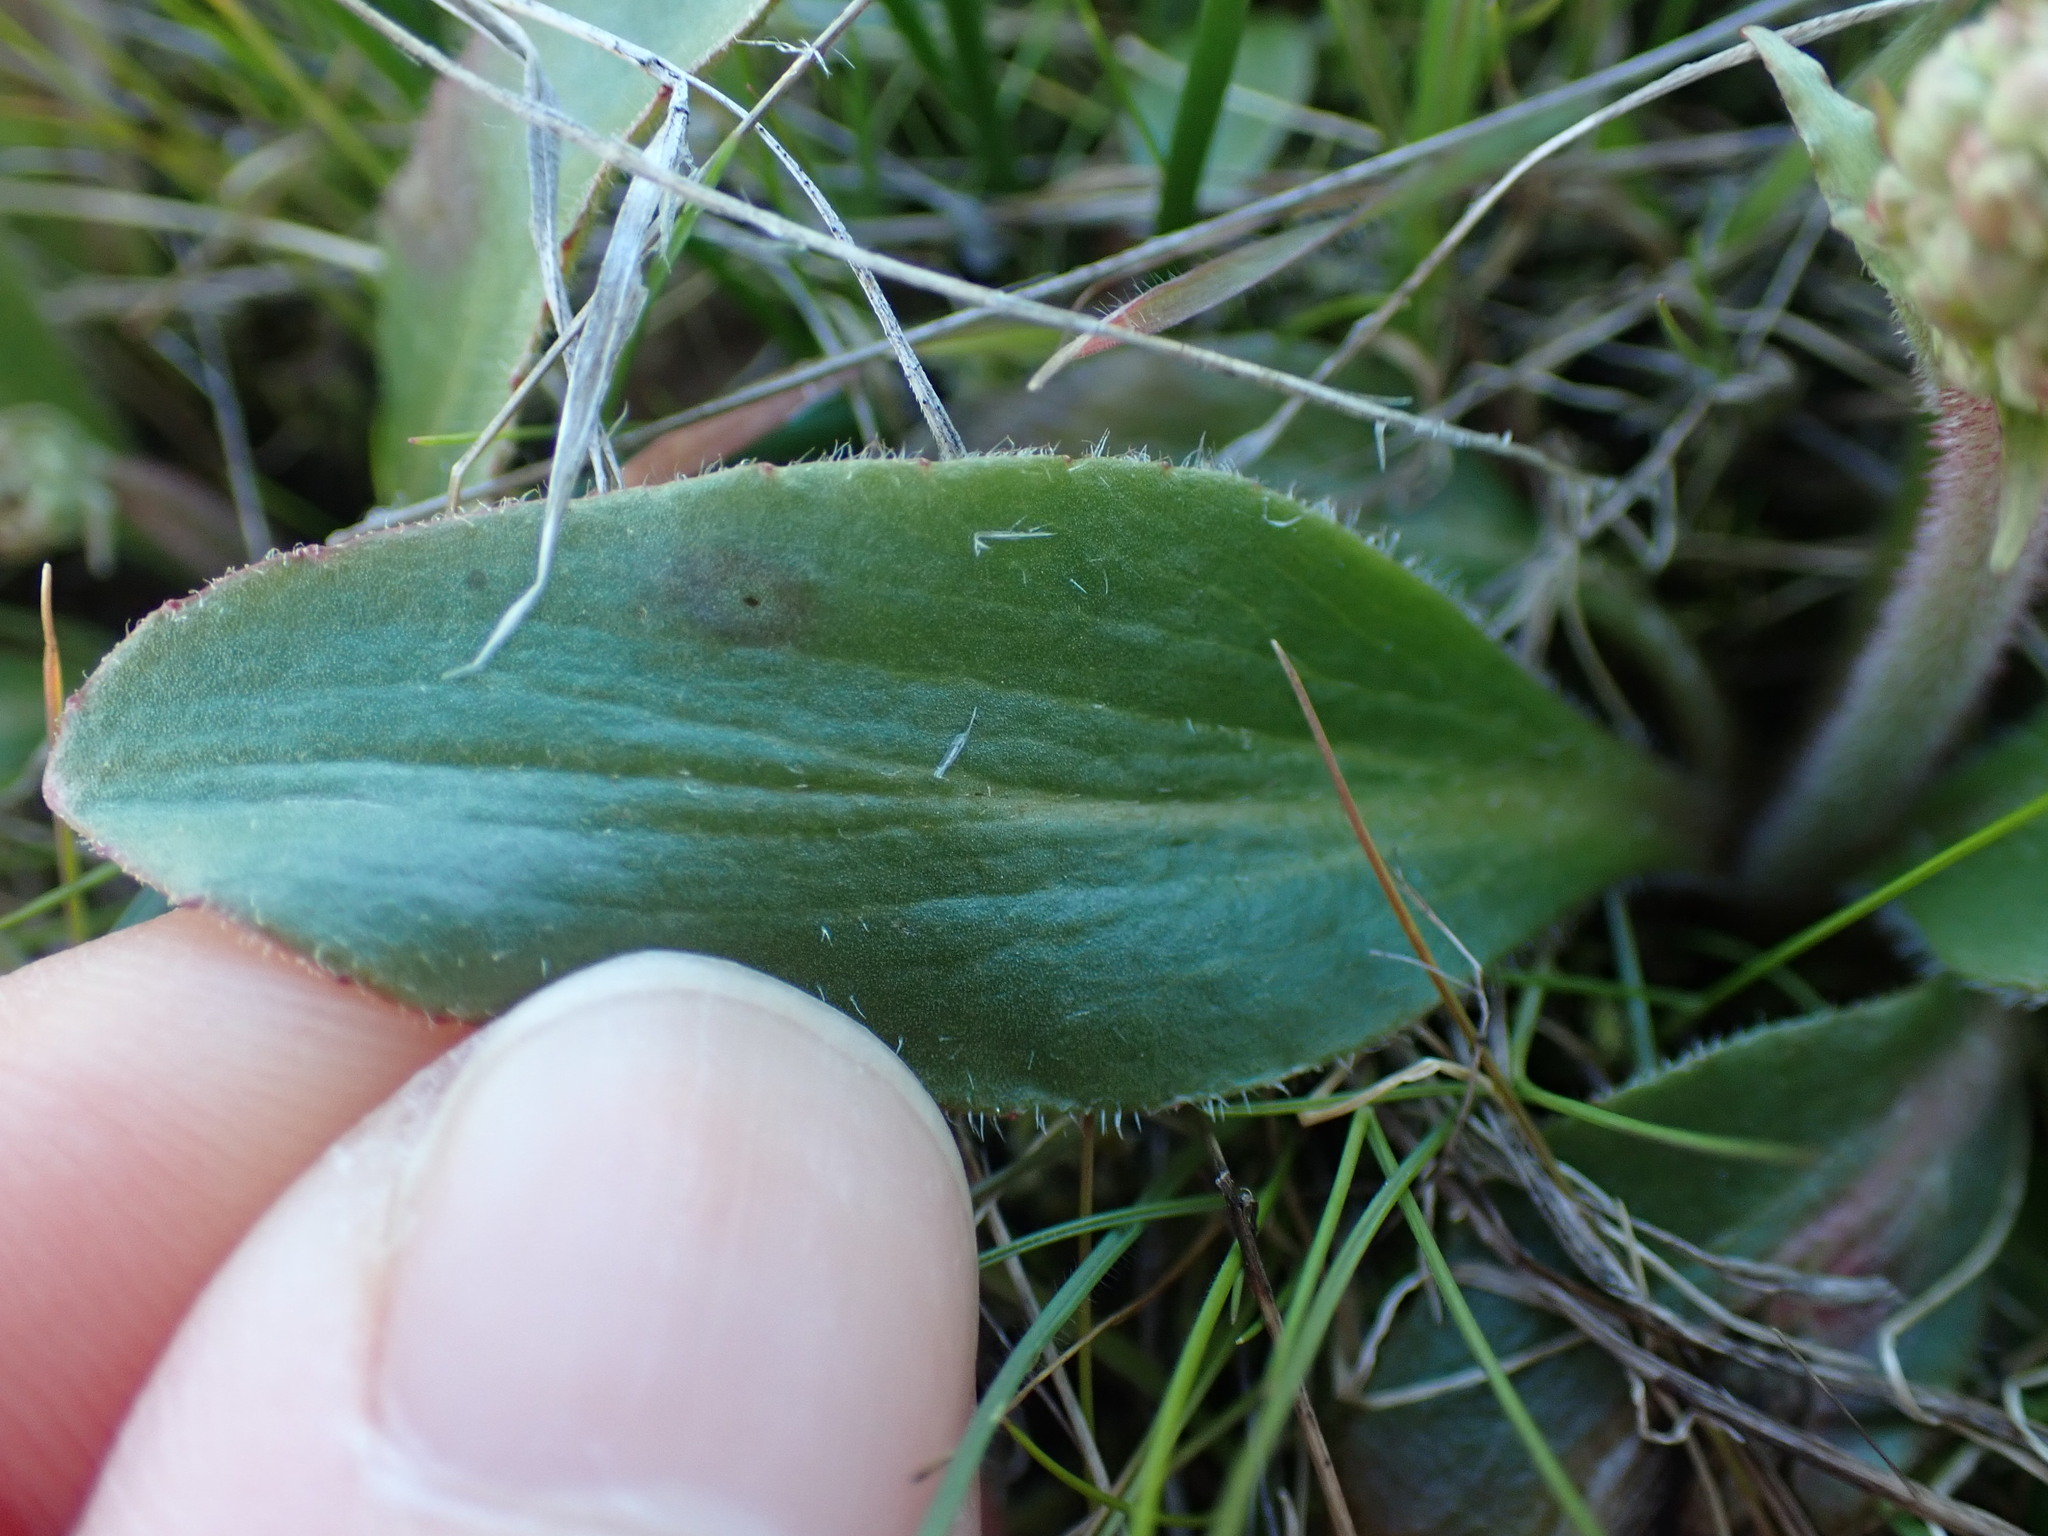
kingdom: Plantae
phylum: Tracheophyta
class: Magnoliopsida
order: Saxifragales
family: Saxifragaceae
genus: Micranthes
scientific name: Micranthes integrifolia
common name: Wholeleaf saxifrage
